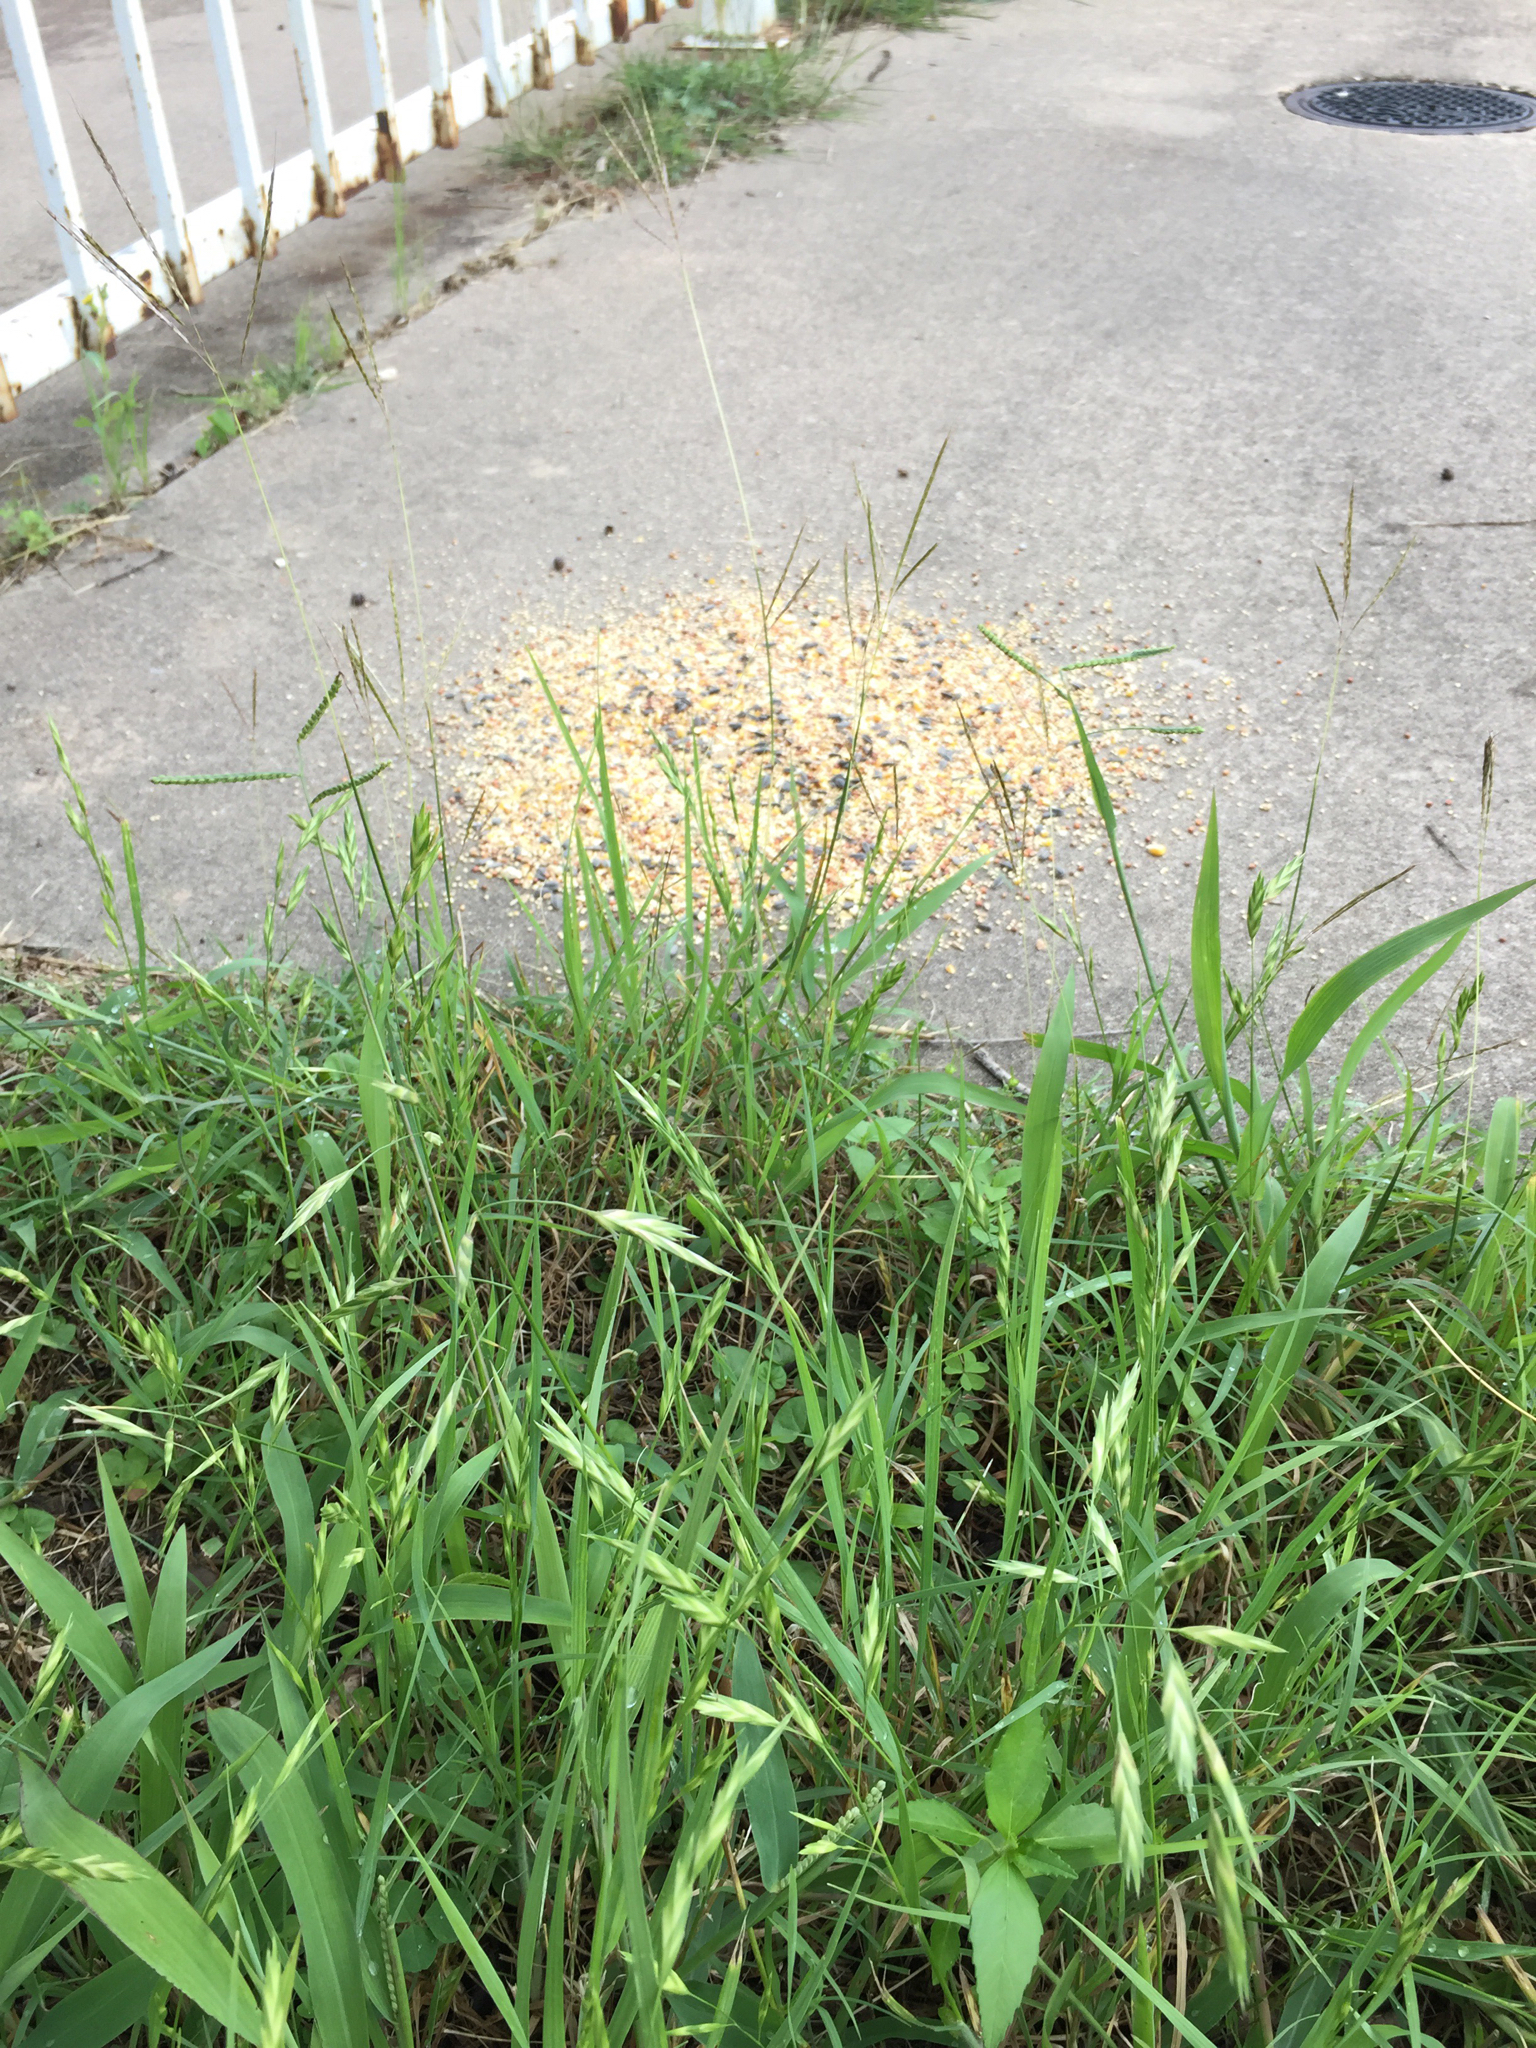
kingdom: Plantae
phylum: Tracheophyta
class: Liliopsida
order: Poales
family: Poaceae
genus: Bromus
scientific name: Bromus catharticus
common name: Rescuegrass
